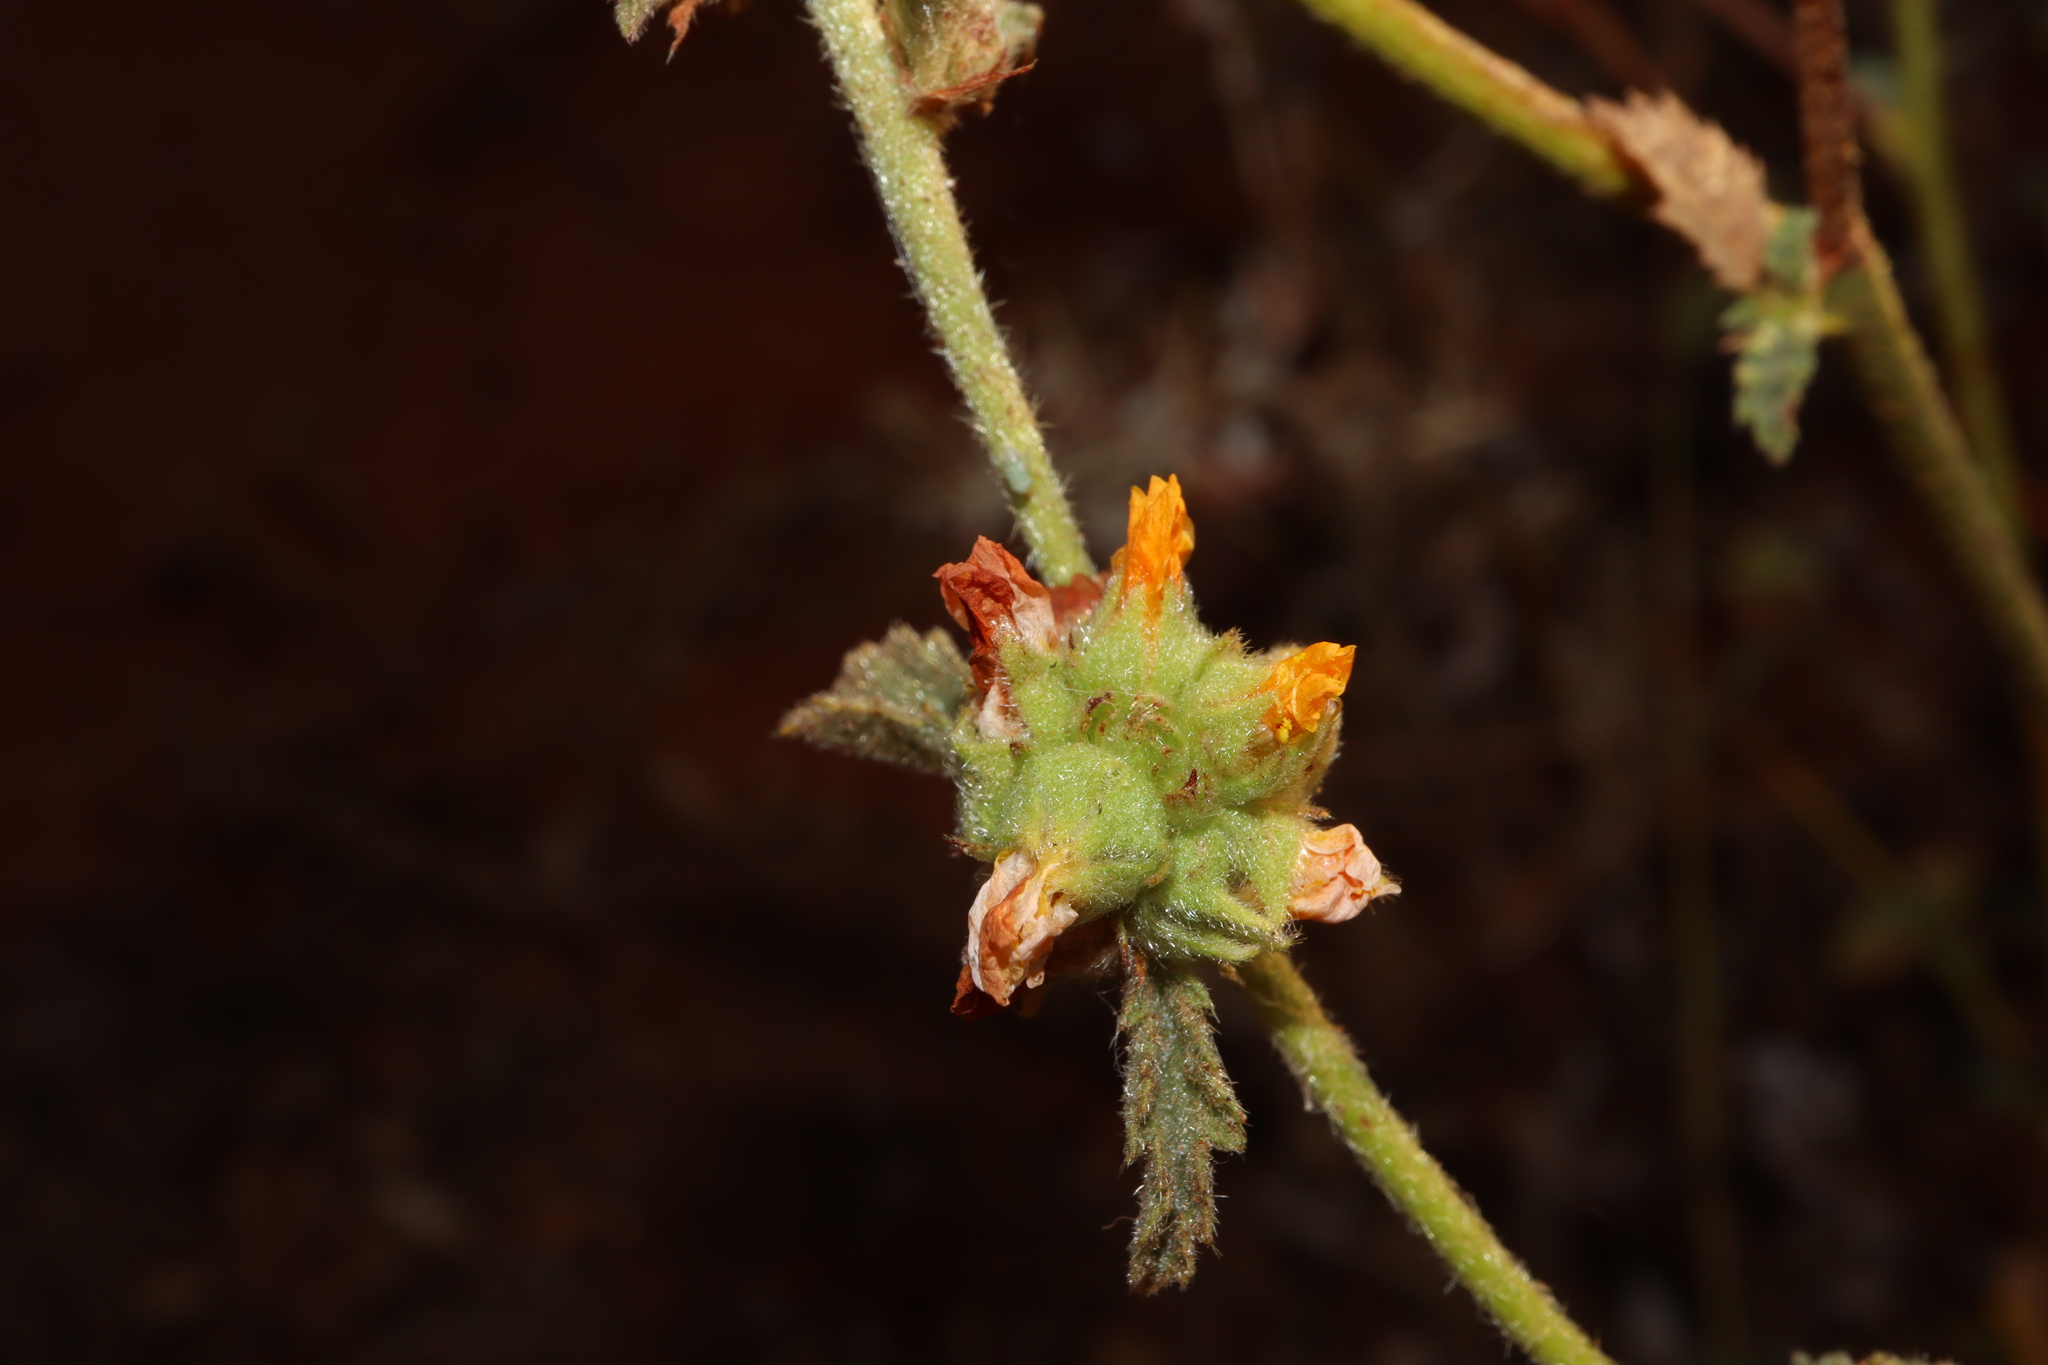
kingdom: Plantae
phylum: Tracheophyta
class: Magnoliopsida
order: Malvales
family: Malvaceae
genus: Malvastrum
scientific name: Malvastrum americanum
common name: Spiked malvastrum
